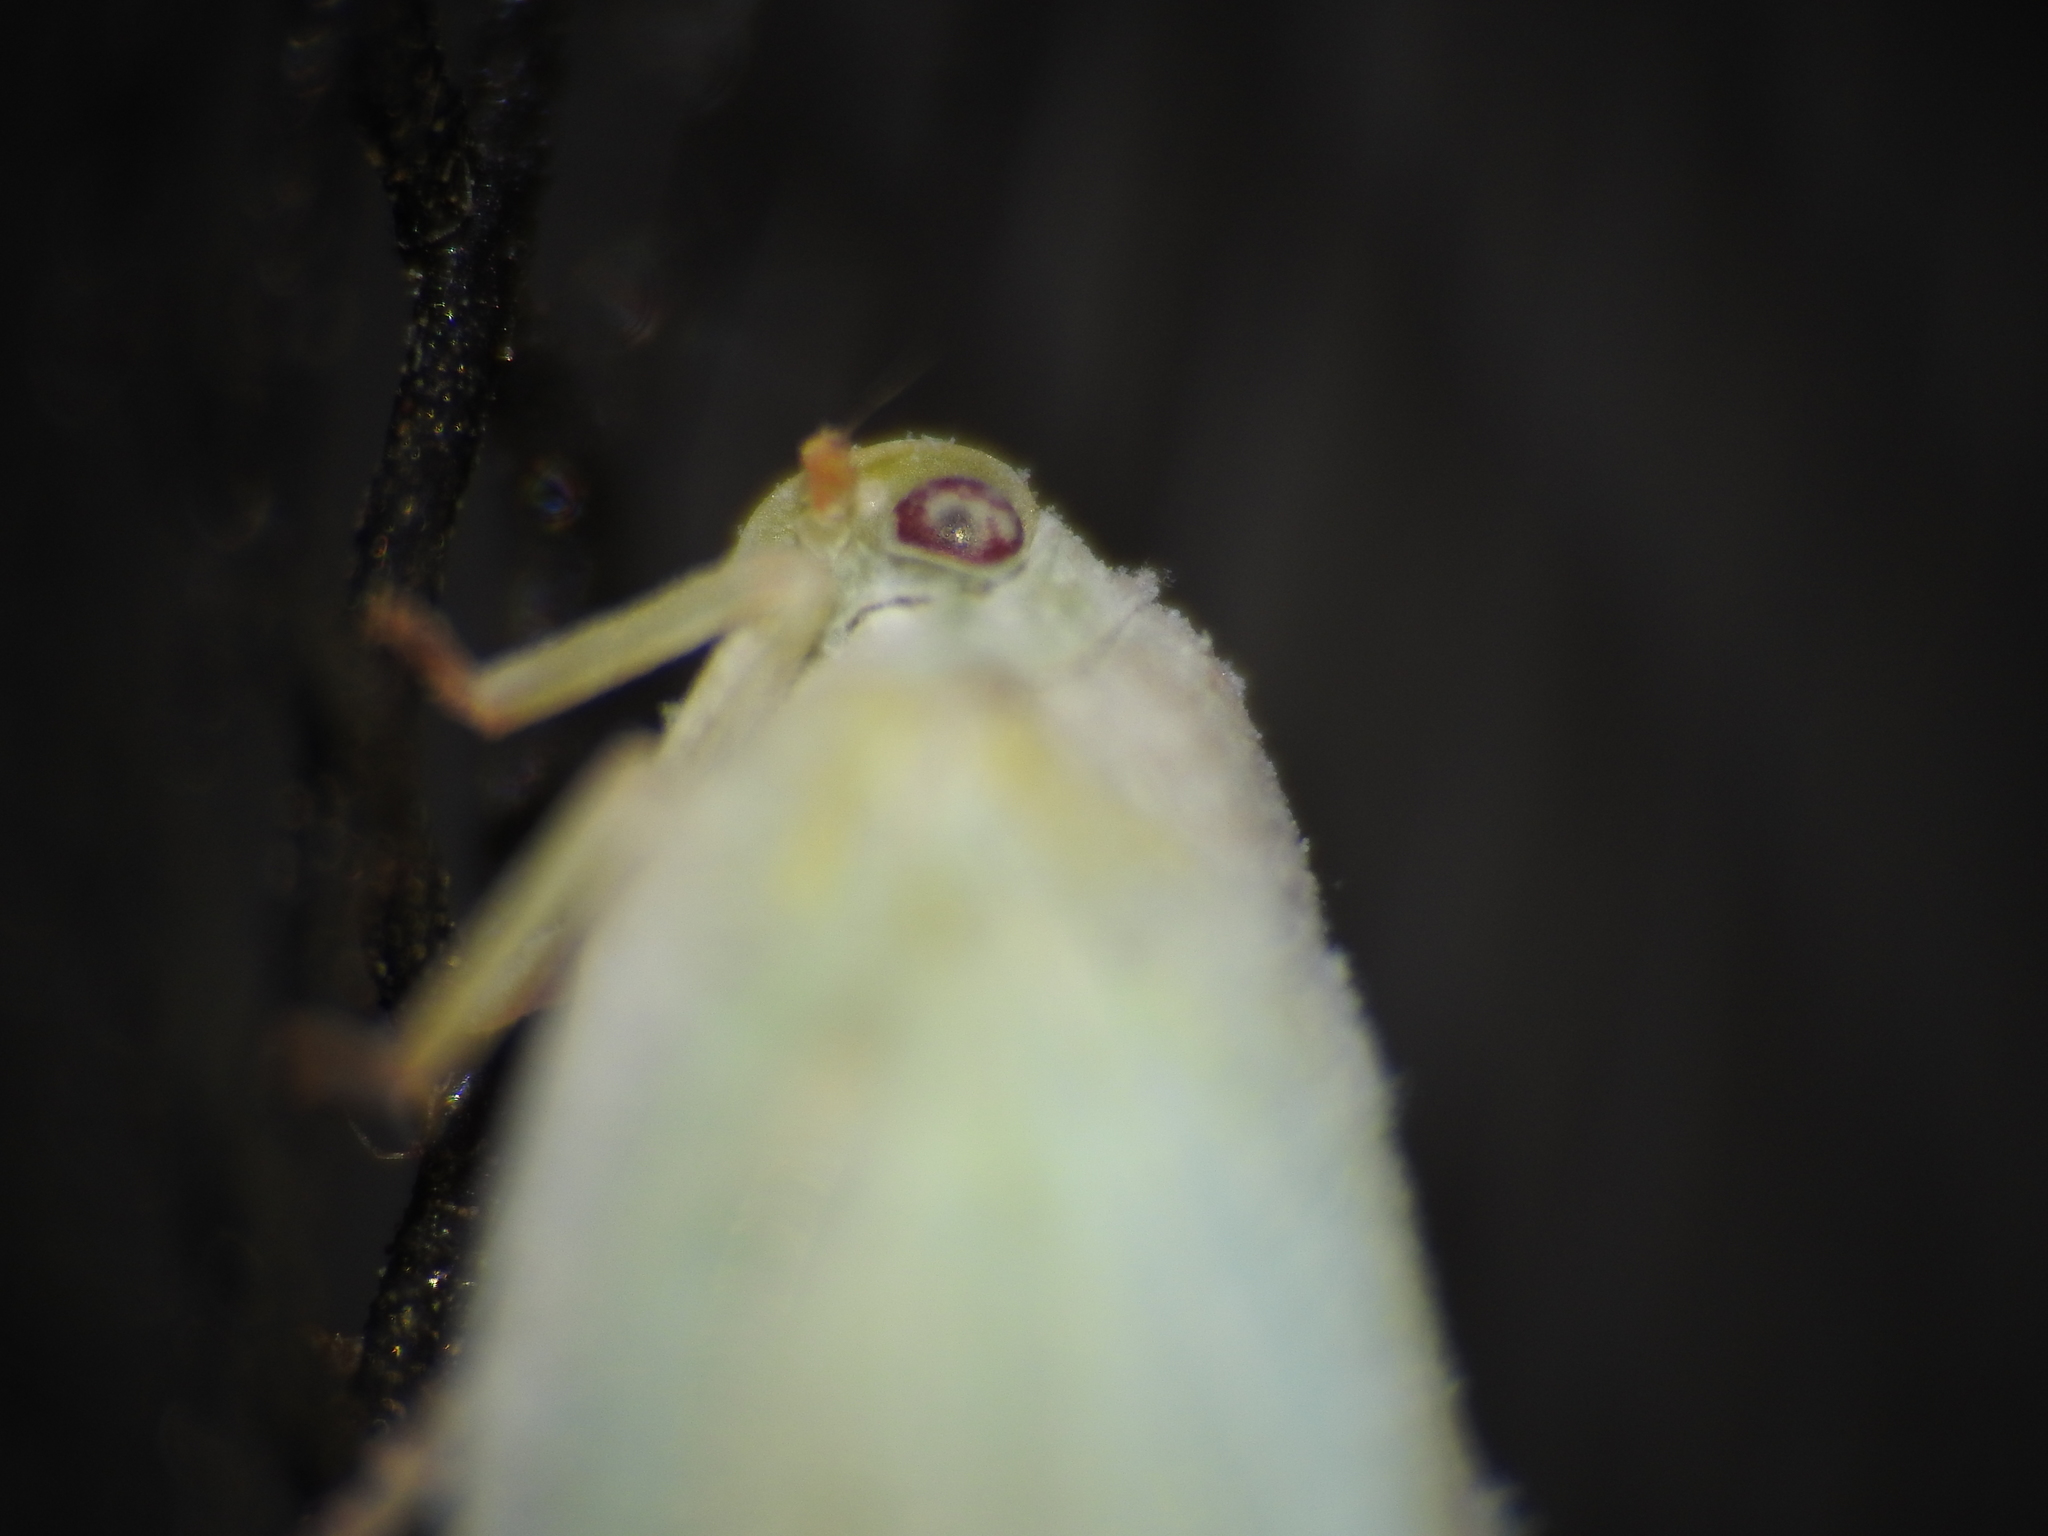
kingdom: Animalia
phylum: Arthropoda
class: Insecta
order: Hemiptera
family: Flatidae
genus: Ormenoides
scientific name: Ormenoides venusta
